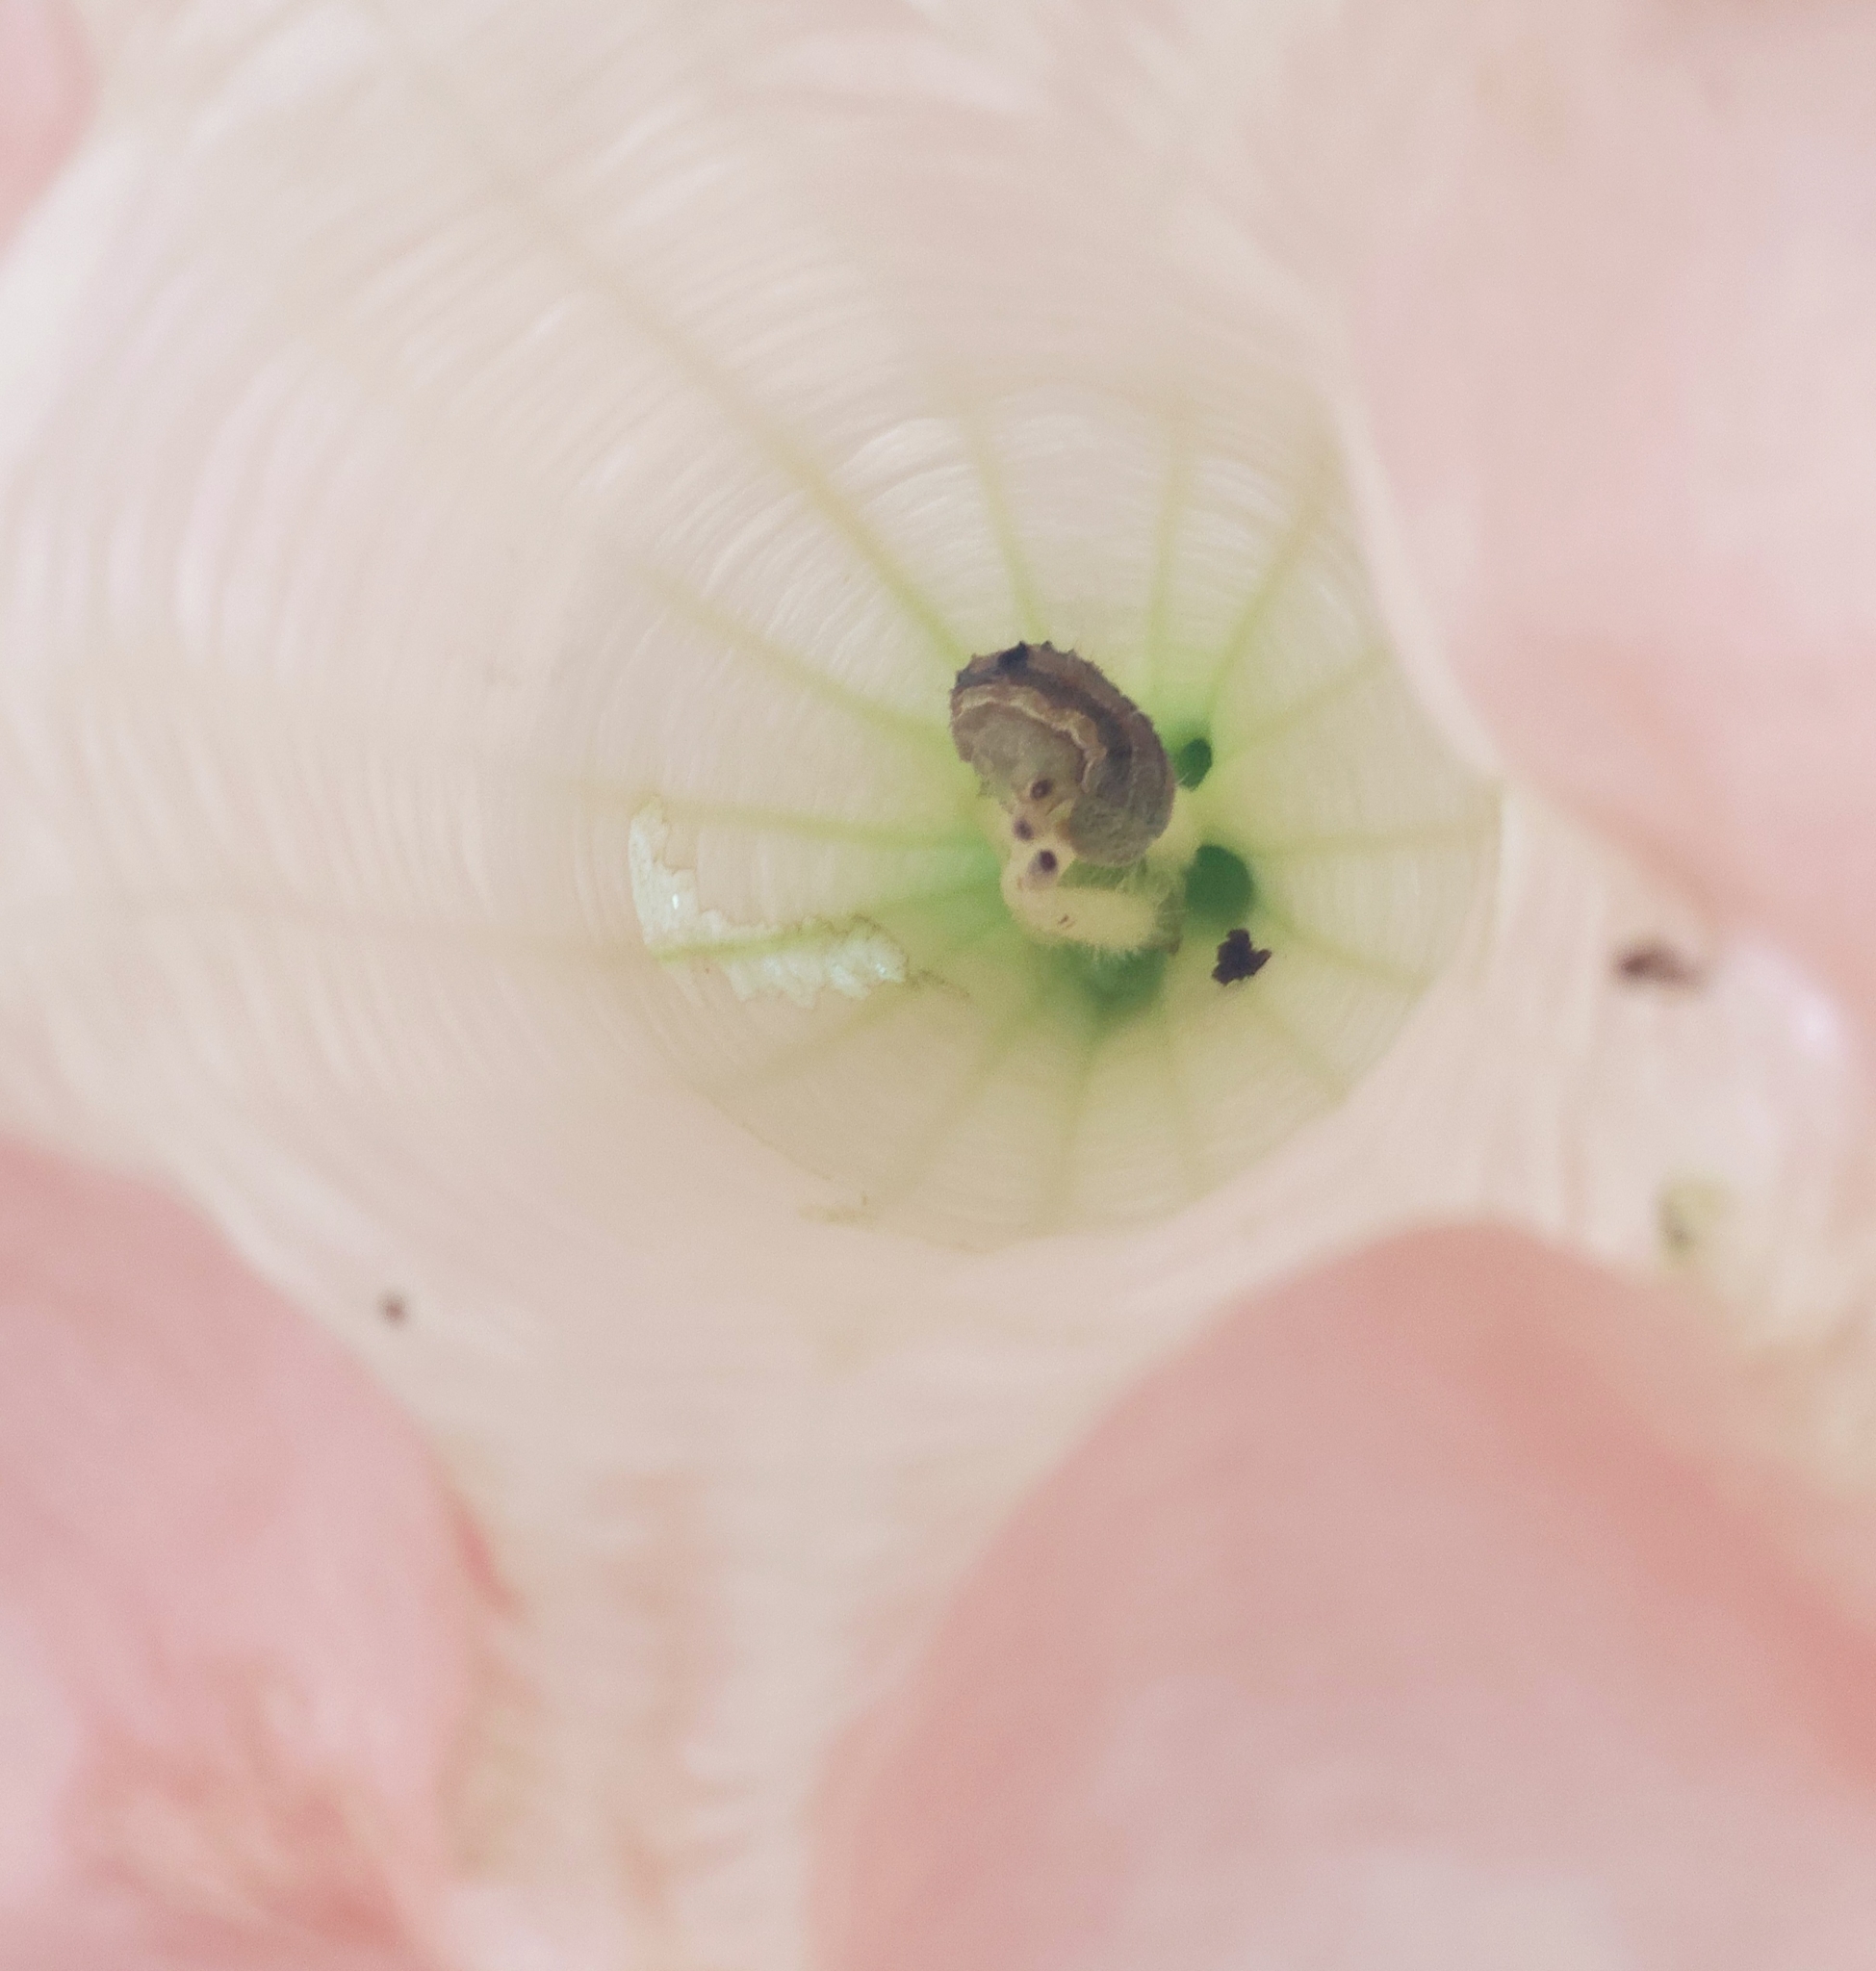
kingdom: Animalia
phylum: Arthropoda
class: Insecta
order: Lepidoptera
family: Noctuidae
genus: Helicoverpa
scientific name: Helicoverpa armigera
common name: Cotton bollworm
